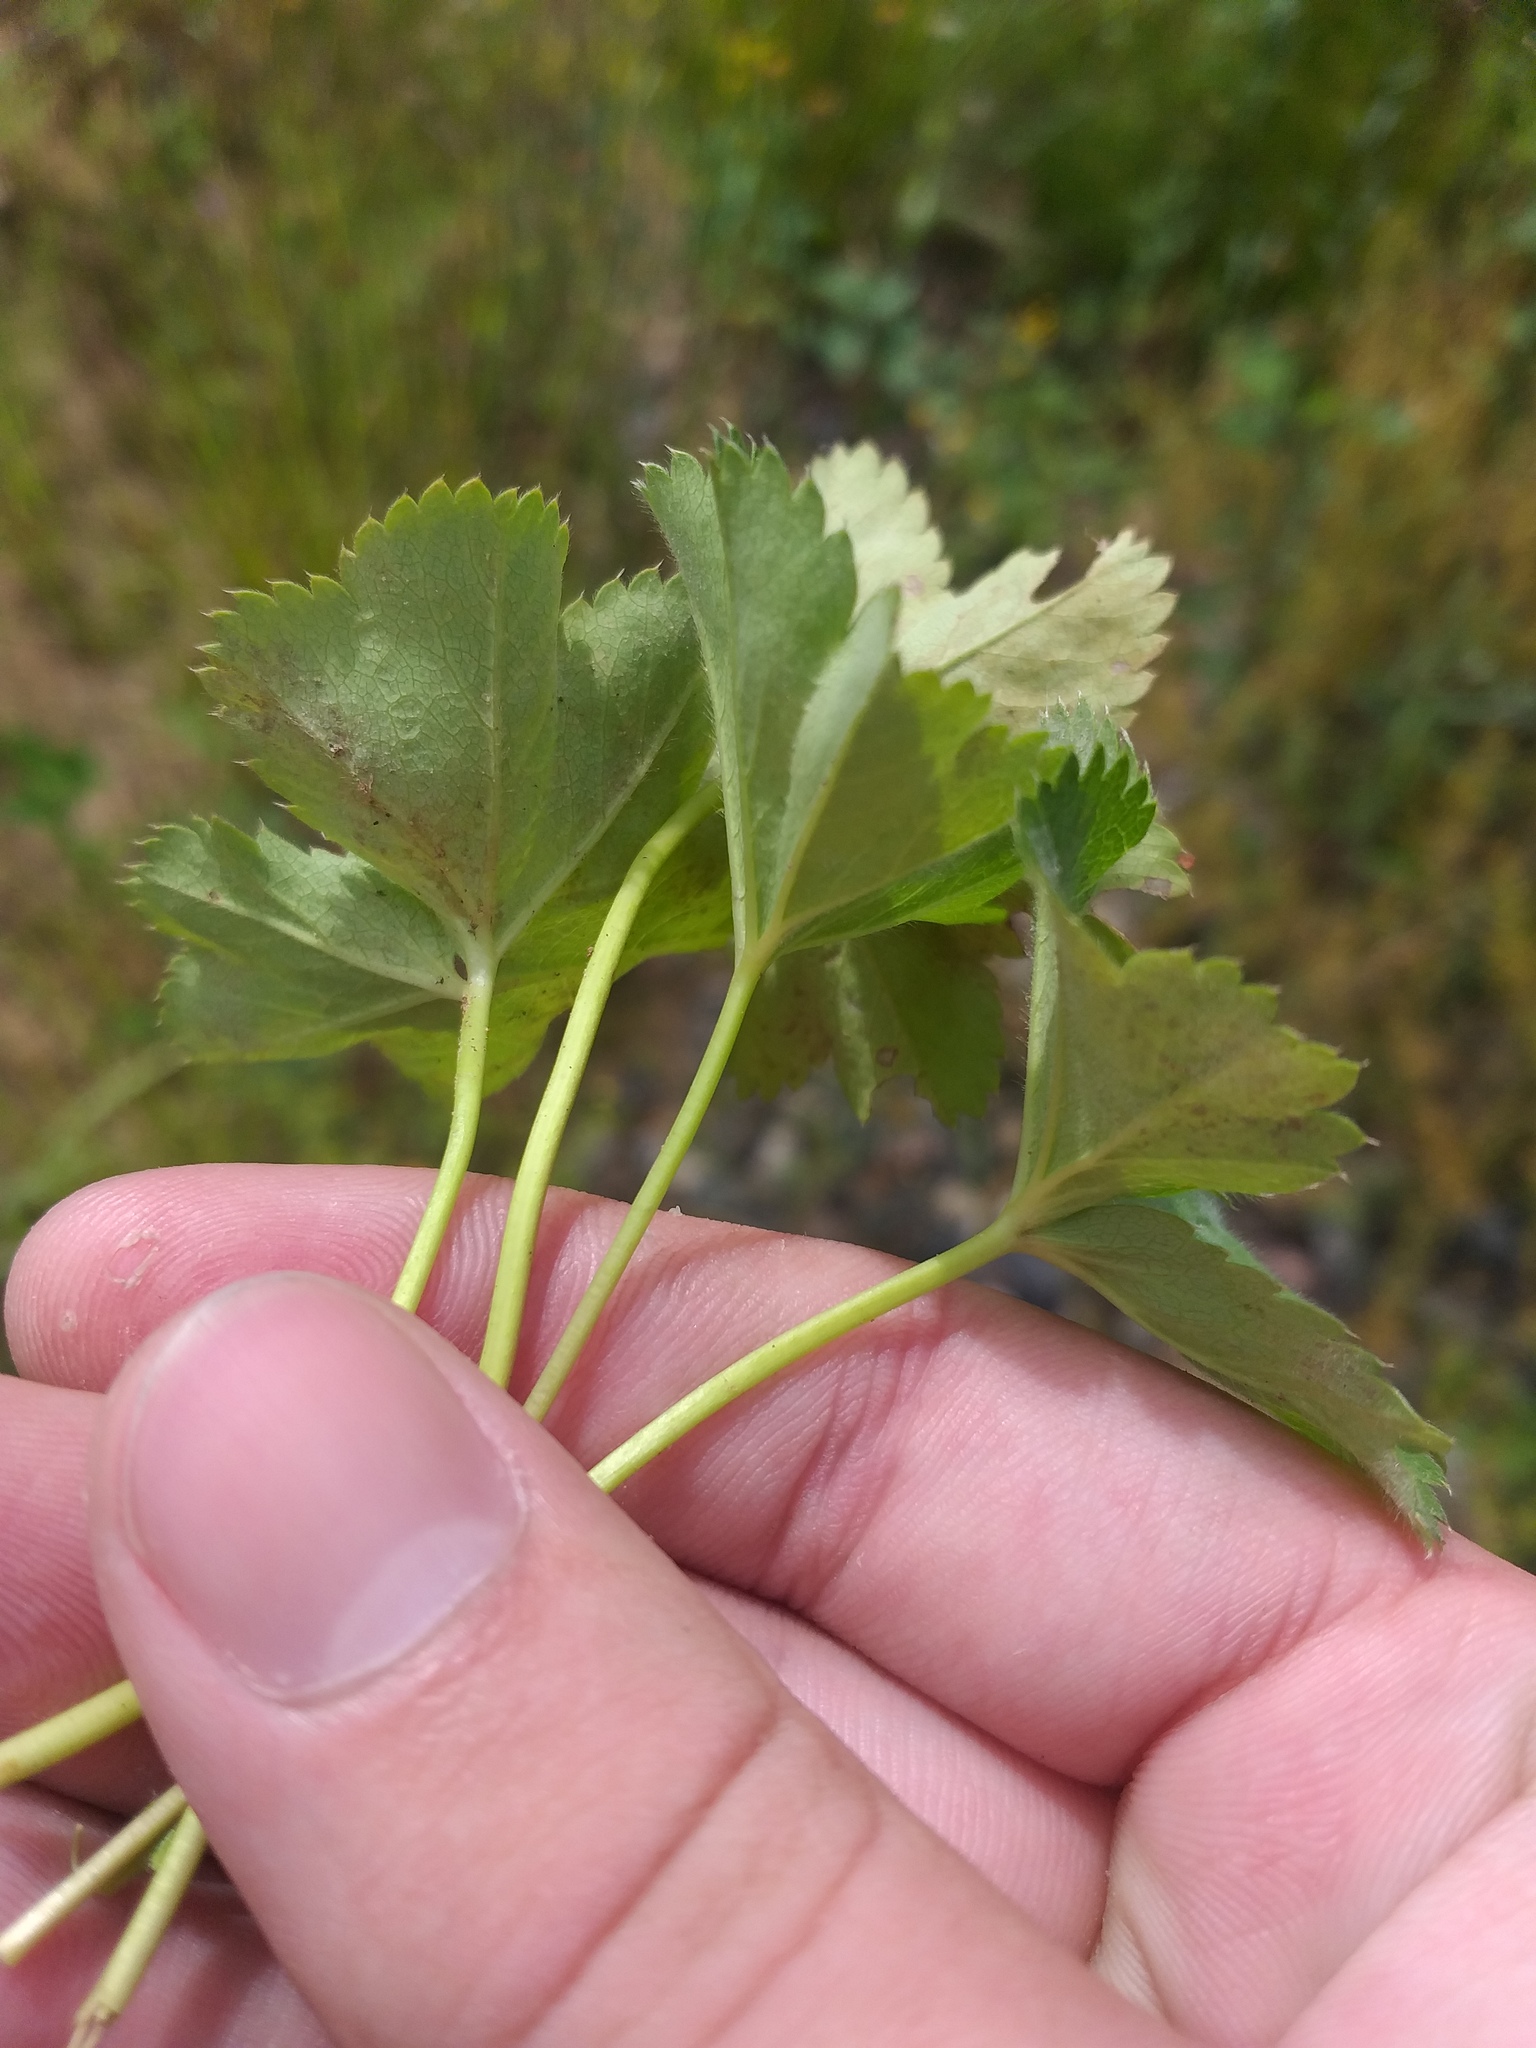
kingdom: Plantae
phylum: Tracheophyta
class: Magnoliopsida
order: Rosales
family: Rosaceae
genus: Alchemilla
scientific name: Alchemilla glabricaulis
